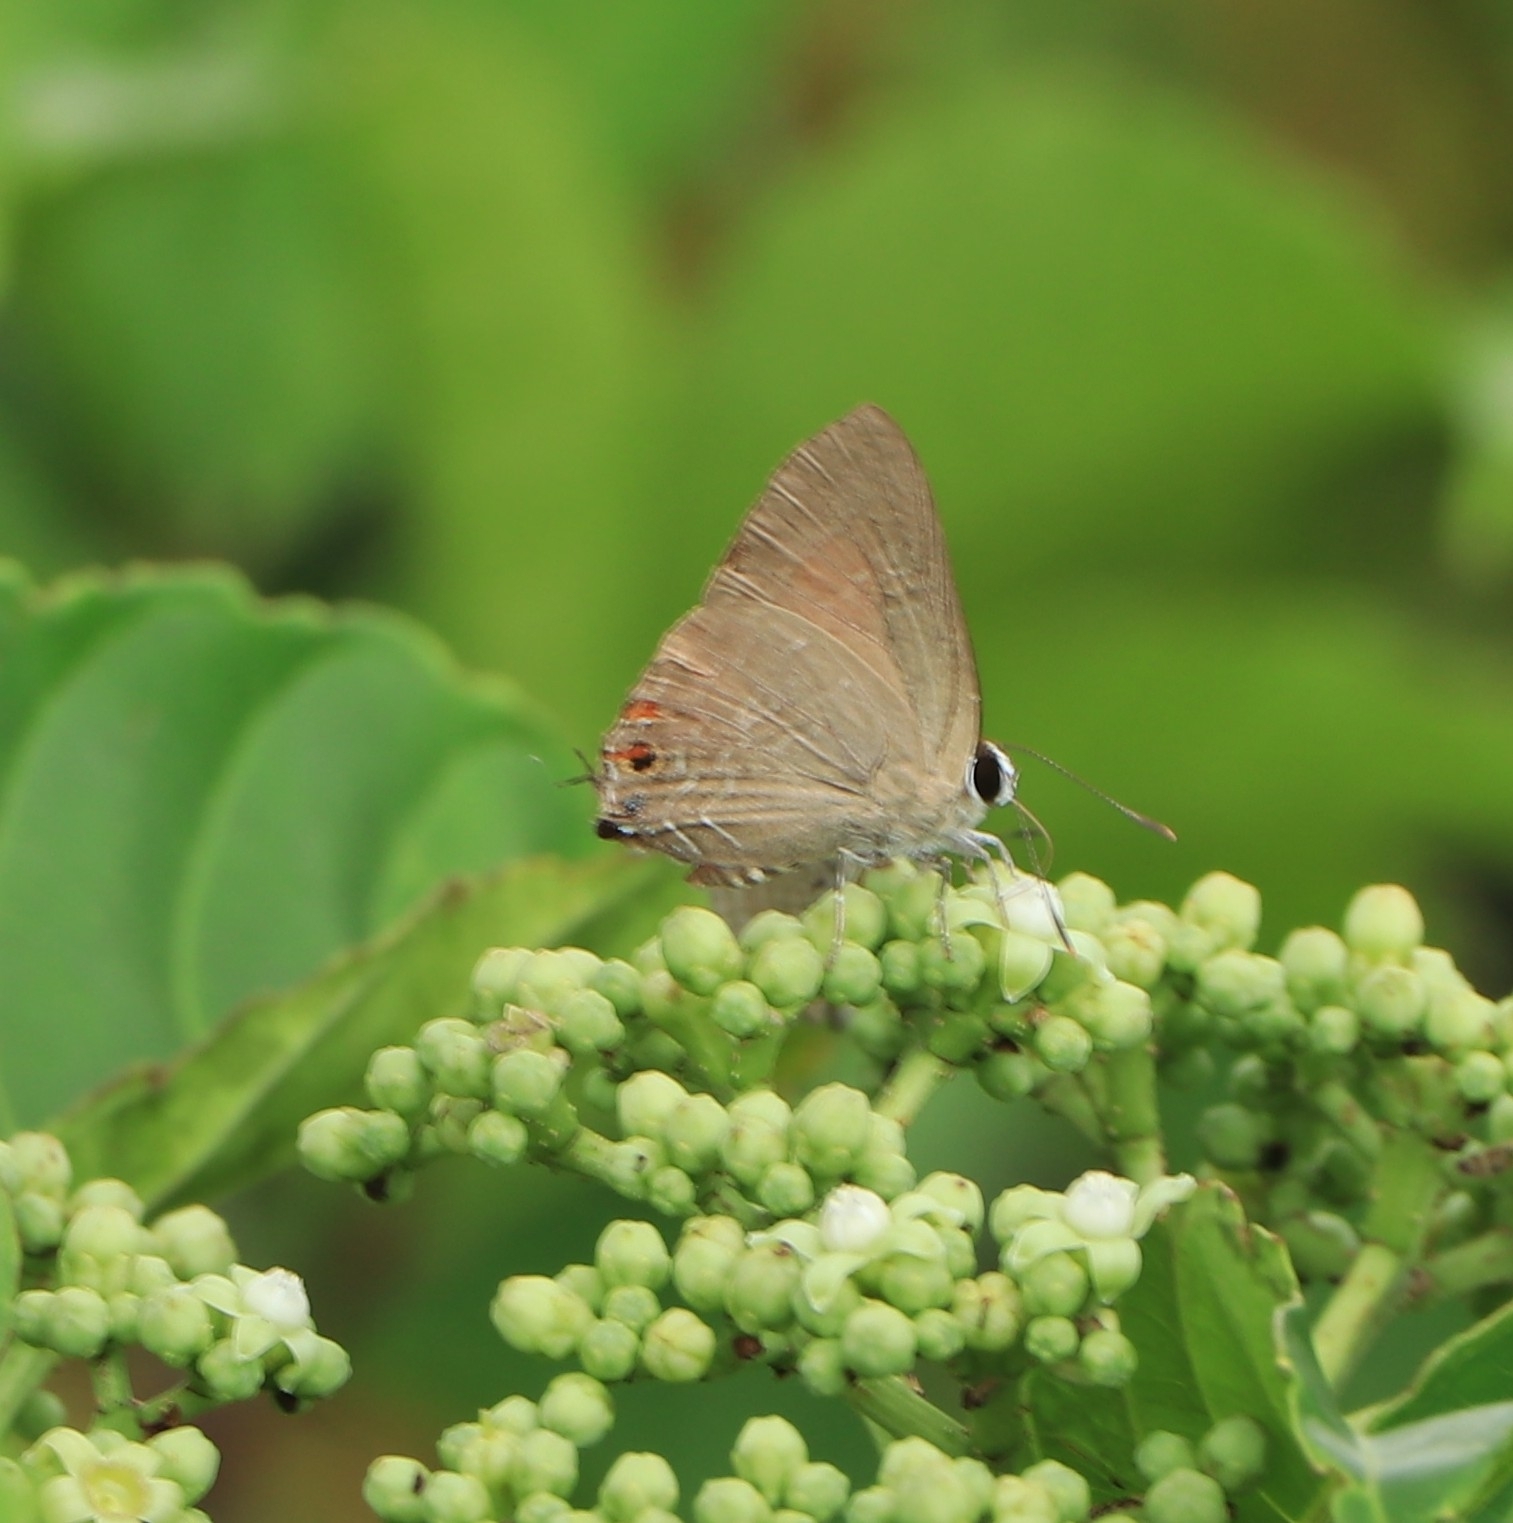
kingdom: Animalia
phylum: Arthropoda
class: Insecta
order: Lepidoptera
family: Lycaenidae
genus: Deudorix
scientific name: Deudorix epijarbas
